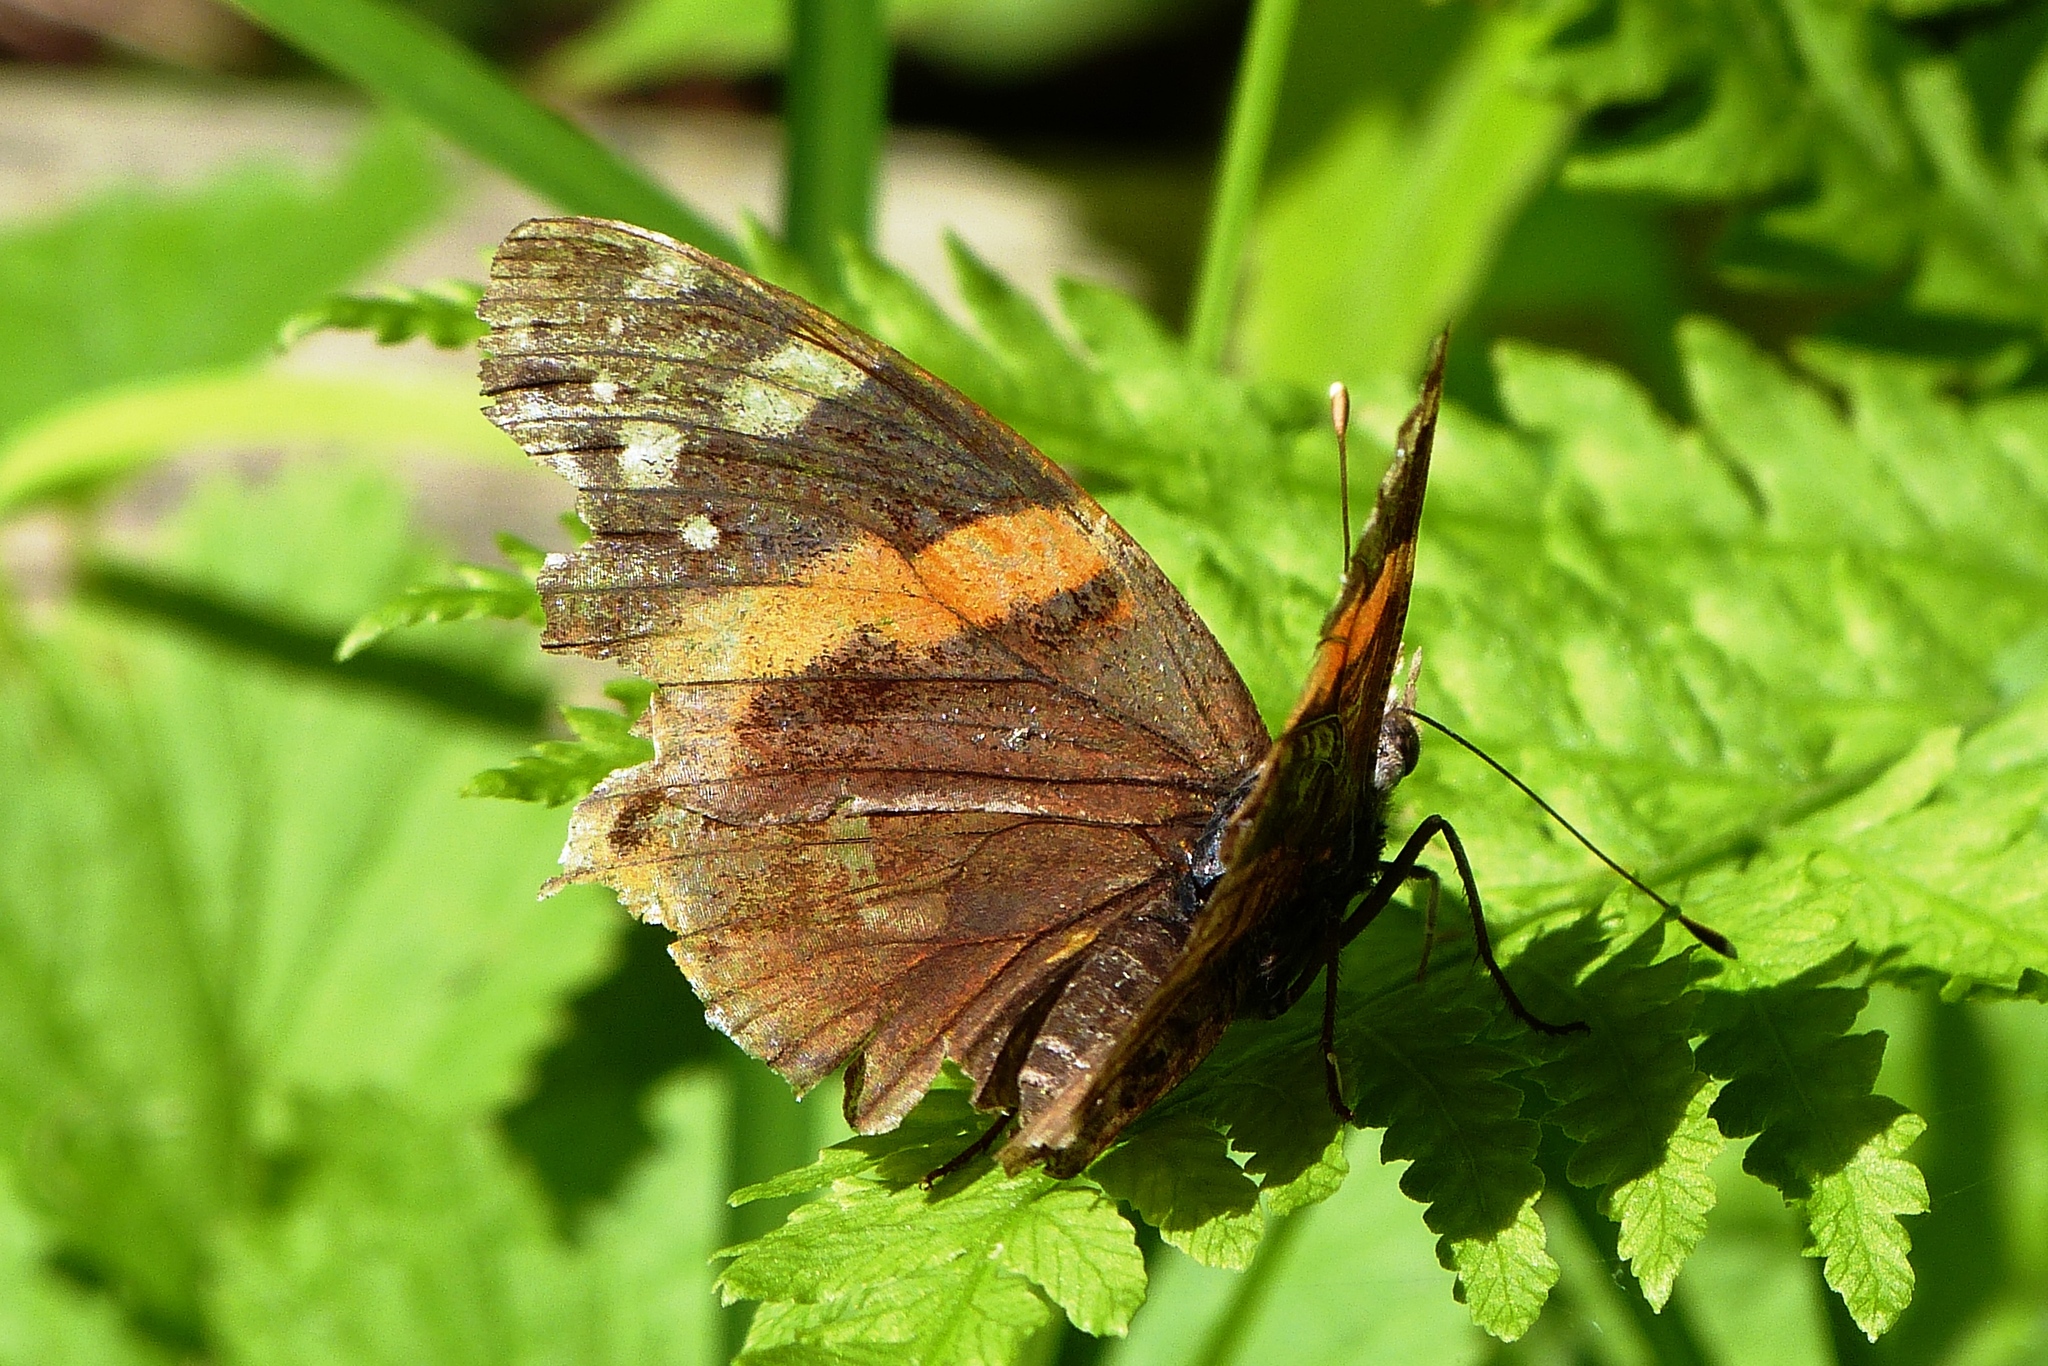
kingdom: Animalia
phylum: Arthropoda
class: Insecta
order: Lepidoptera
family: Nymphalidae
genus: Vanessa
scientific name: Vanessa atalanta
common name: Red admiral
